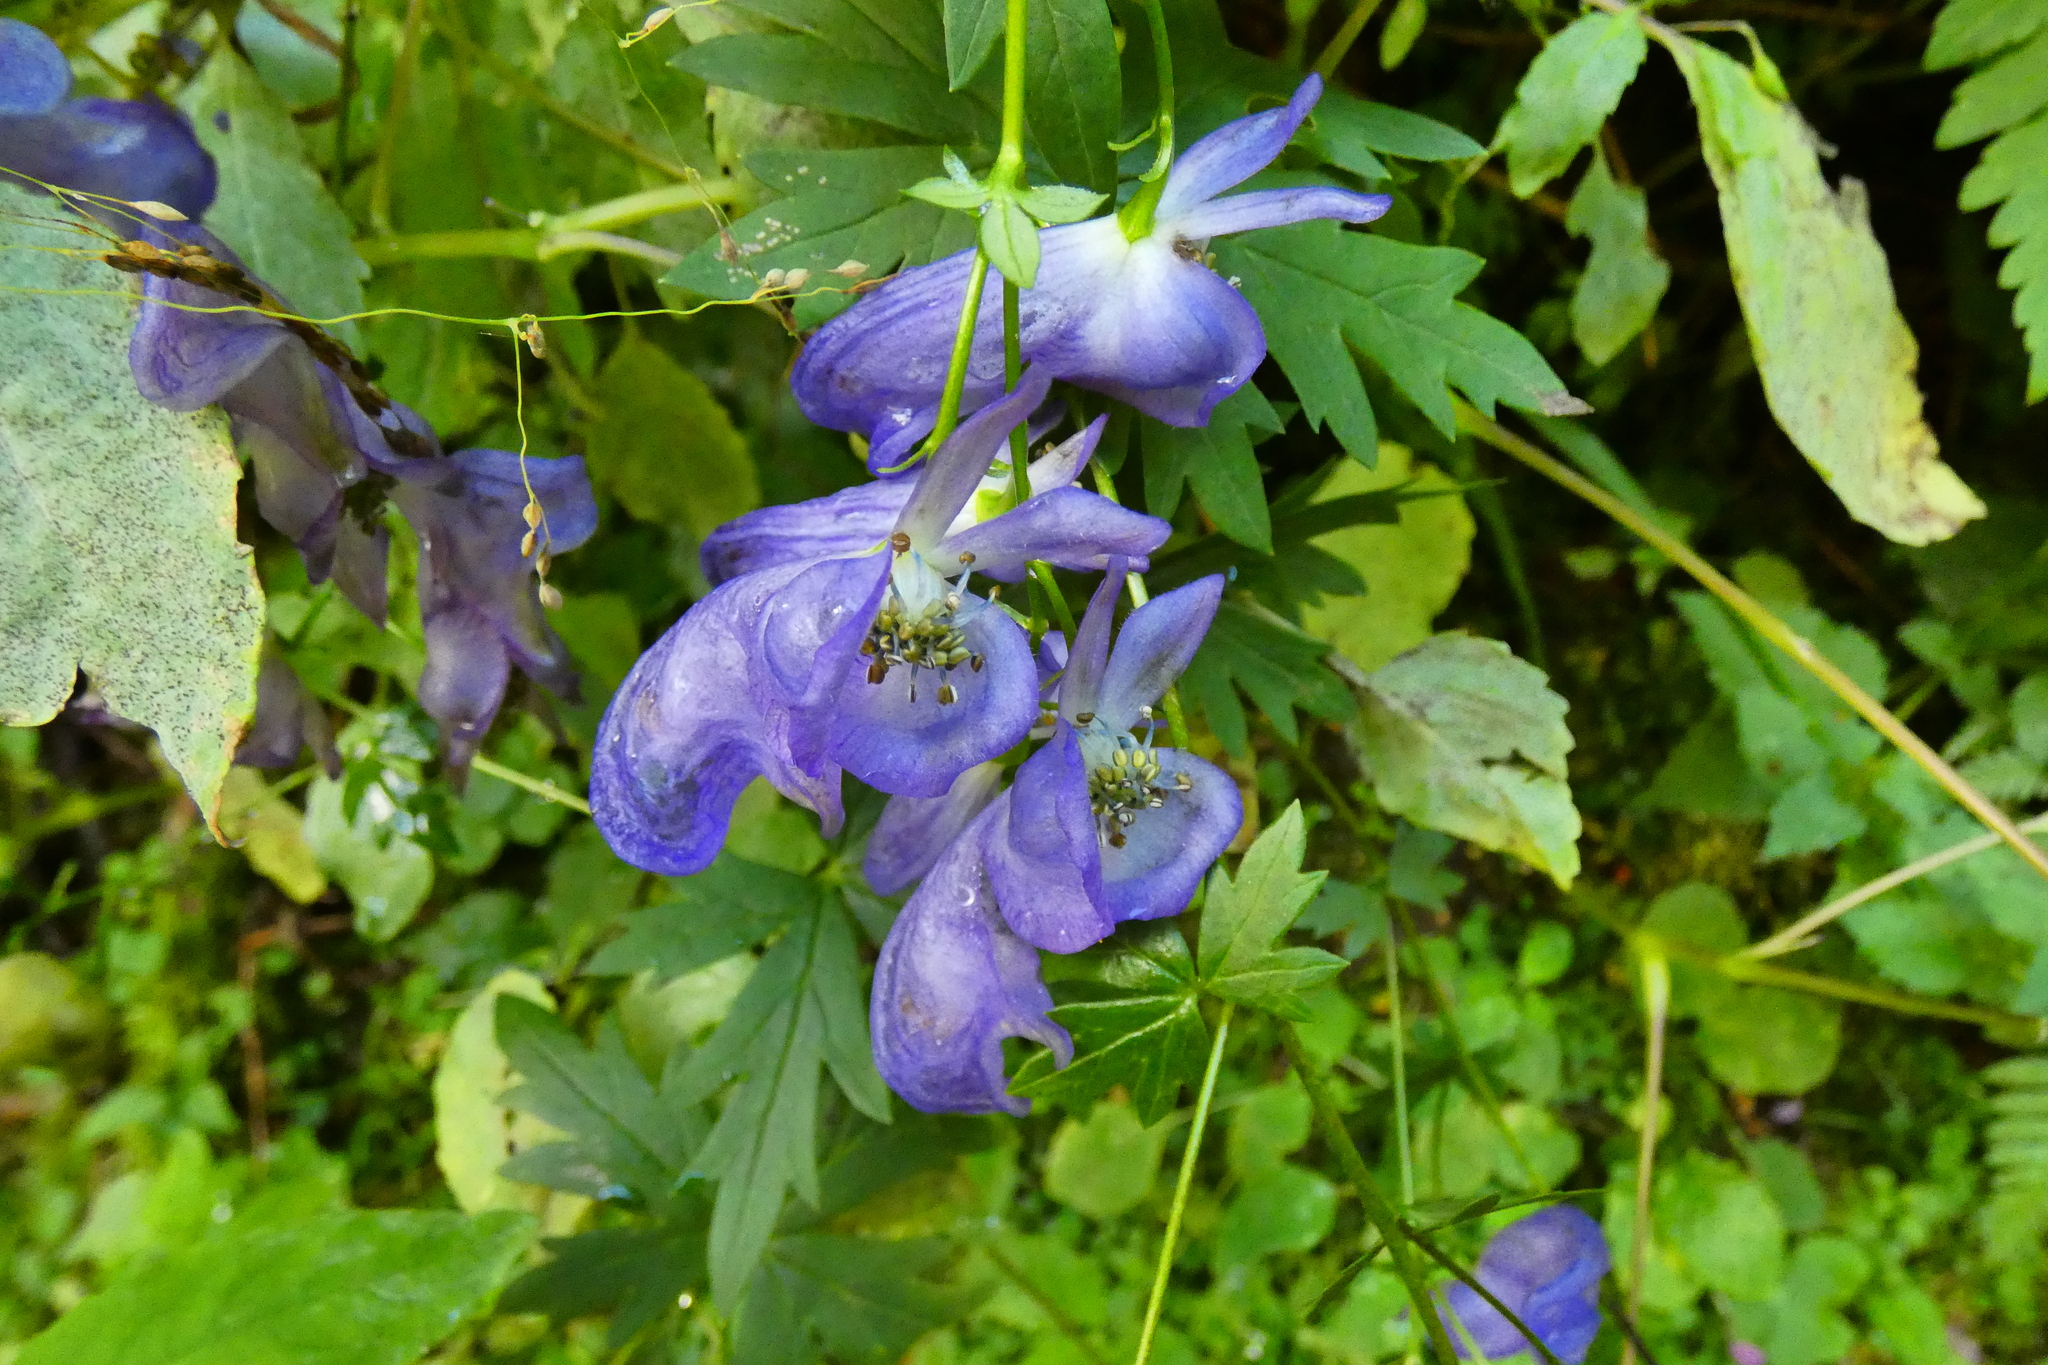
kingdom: Plantae
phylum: Tracheophyta
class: Magnoliopsida
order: Ranunculales
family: Ranunculaceae
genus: Aconitum
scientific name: Aconitum variegatum
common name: Manchurian monkshood
